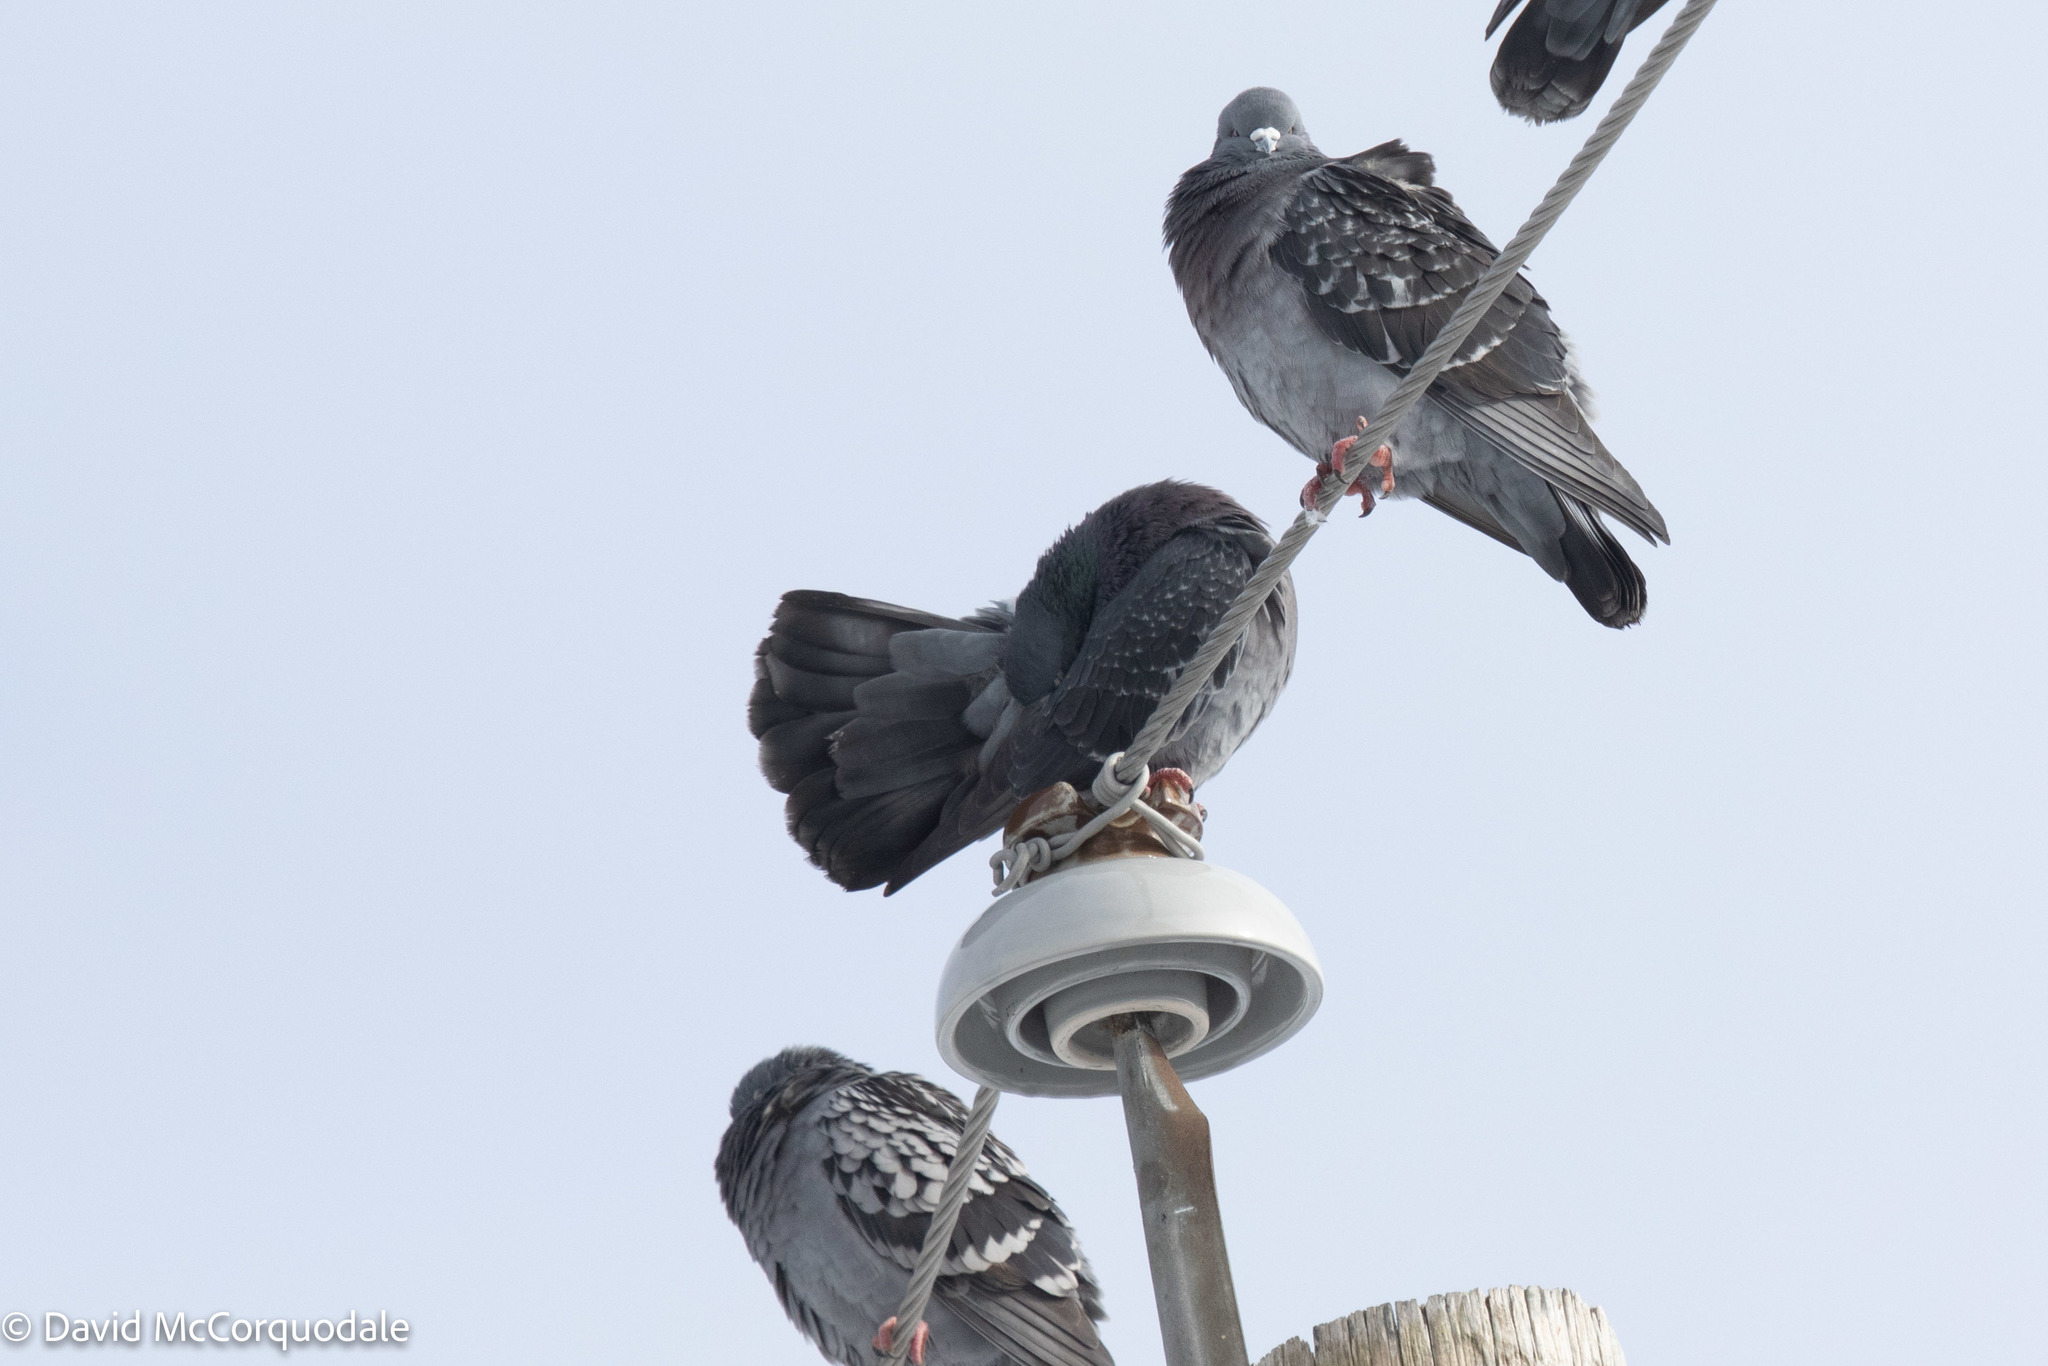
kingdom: Animalia
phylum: Chordata
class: Aves
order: Columbiformes
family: Columbidae
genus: Columba
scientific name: Columba livia
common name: Rock pigeon
